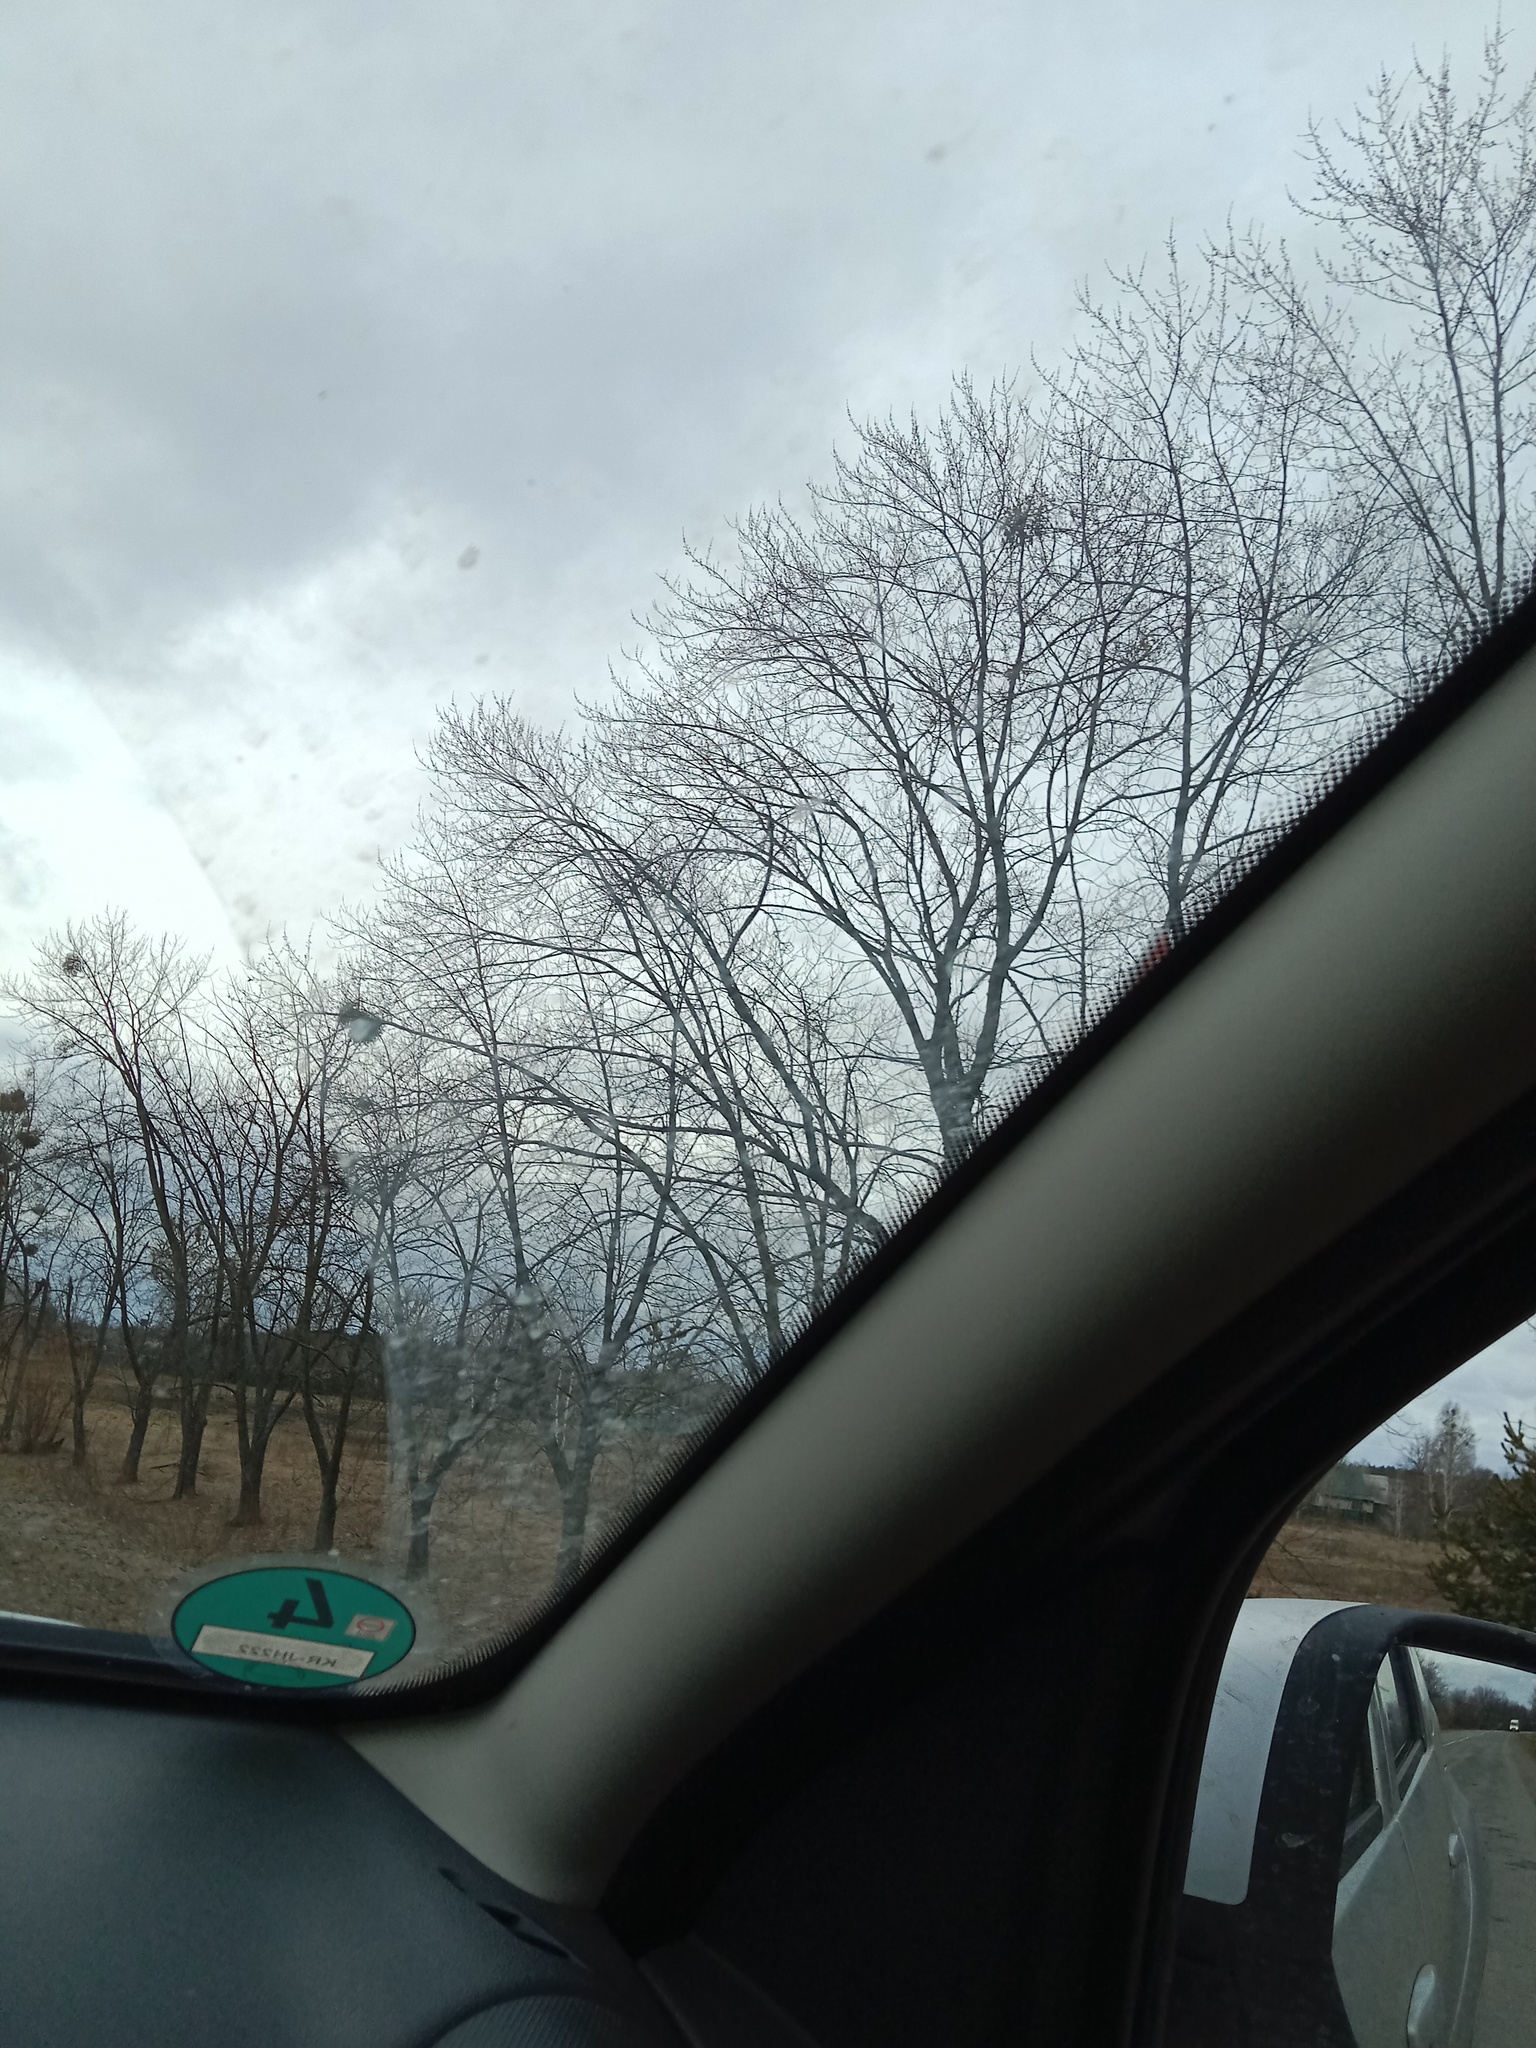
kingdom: Plantae
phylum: Tracheophyta
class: Magnoliopsida
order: Santalales
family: Viscaceae
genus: Viscum
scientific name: Viscum album
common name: Mistletoe
